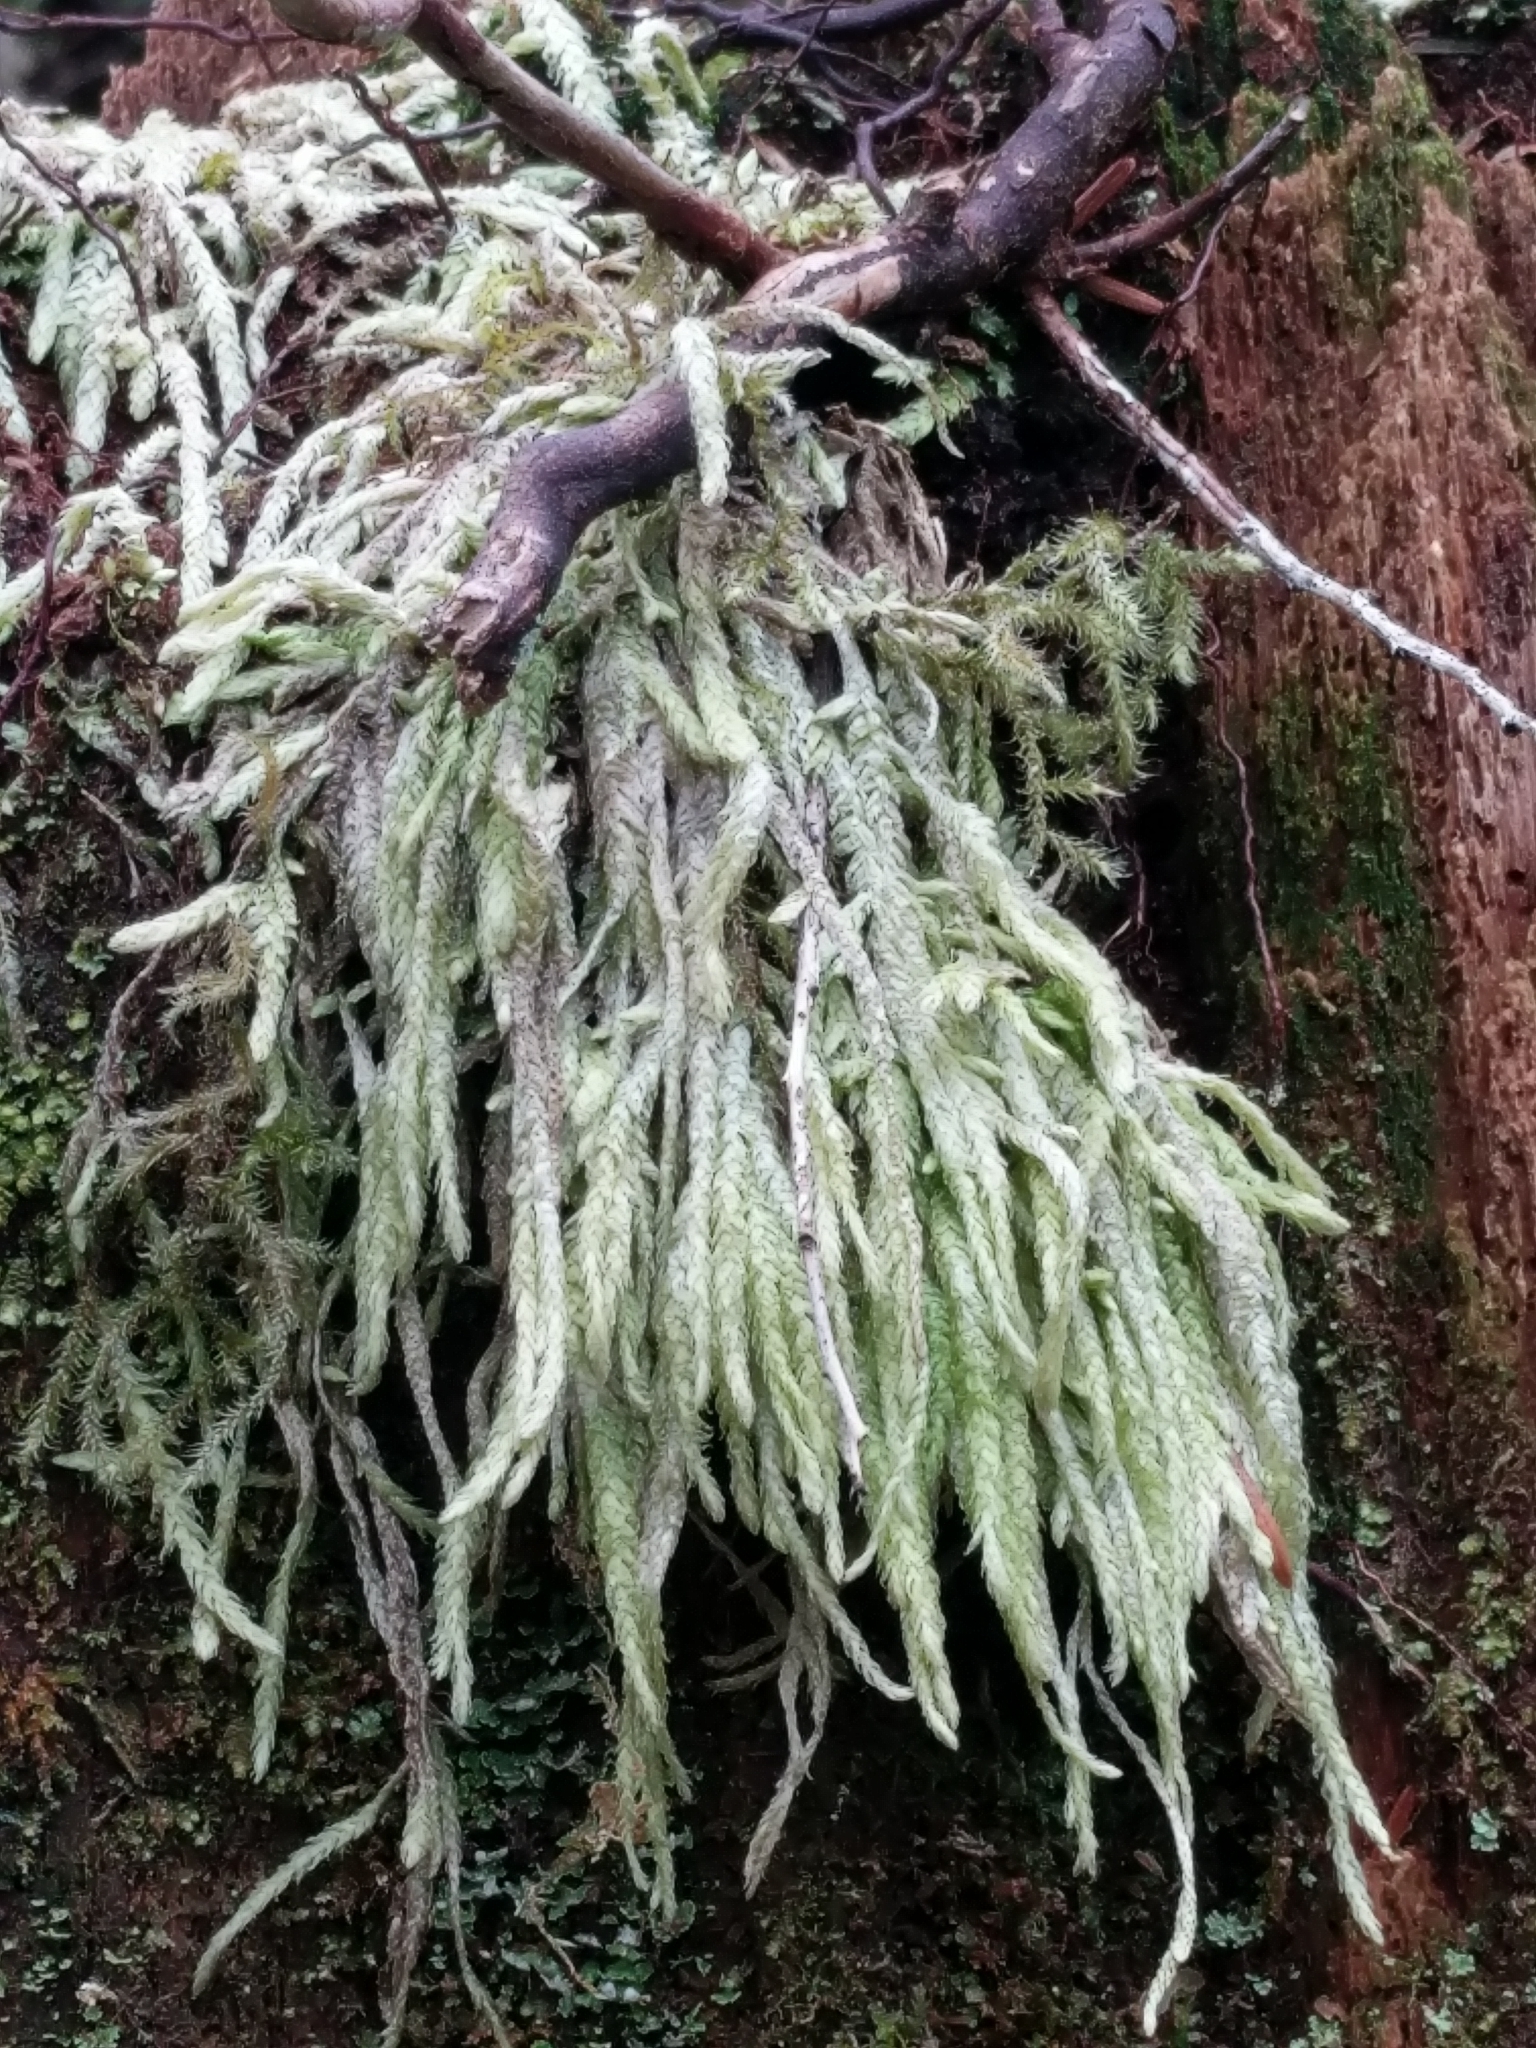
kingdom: Plantae
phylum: Bryophyta
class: Bryopsida
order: Hypnales
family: Plagiotheciaceae
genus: Plagiothecium
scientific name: Plagiothecium undulatum
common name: Waved silk-moss
